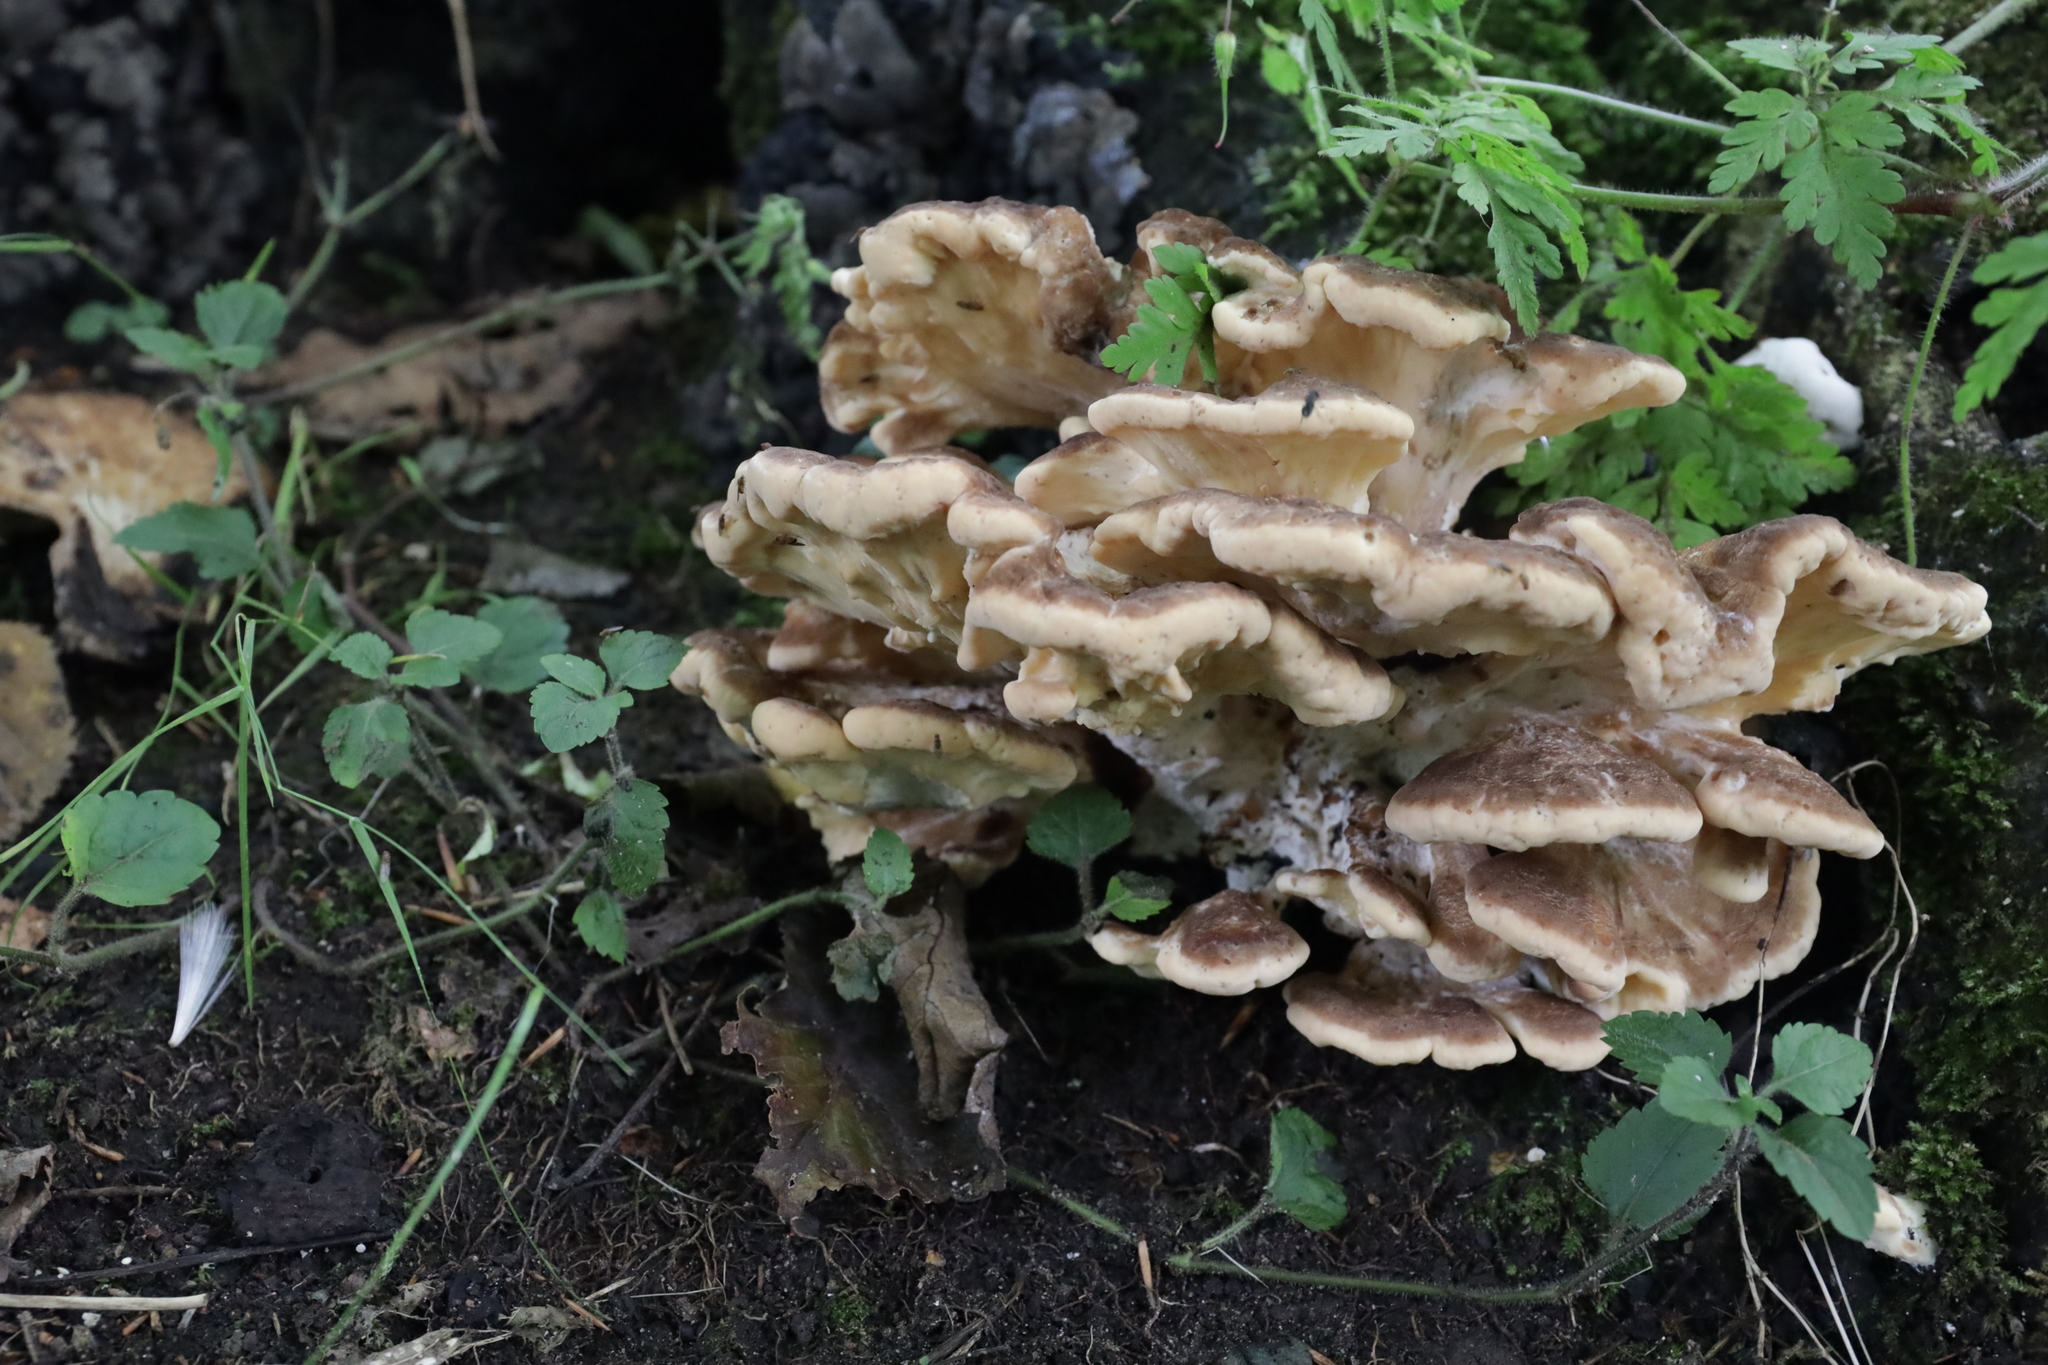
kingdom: Fungi
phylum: Basidiomycota
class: Agaricomycetes
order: Polyporales
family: Meripilaceae
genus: Meripilus
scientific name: Meripilus giganteus
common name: Giant polypore
